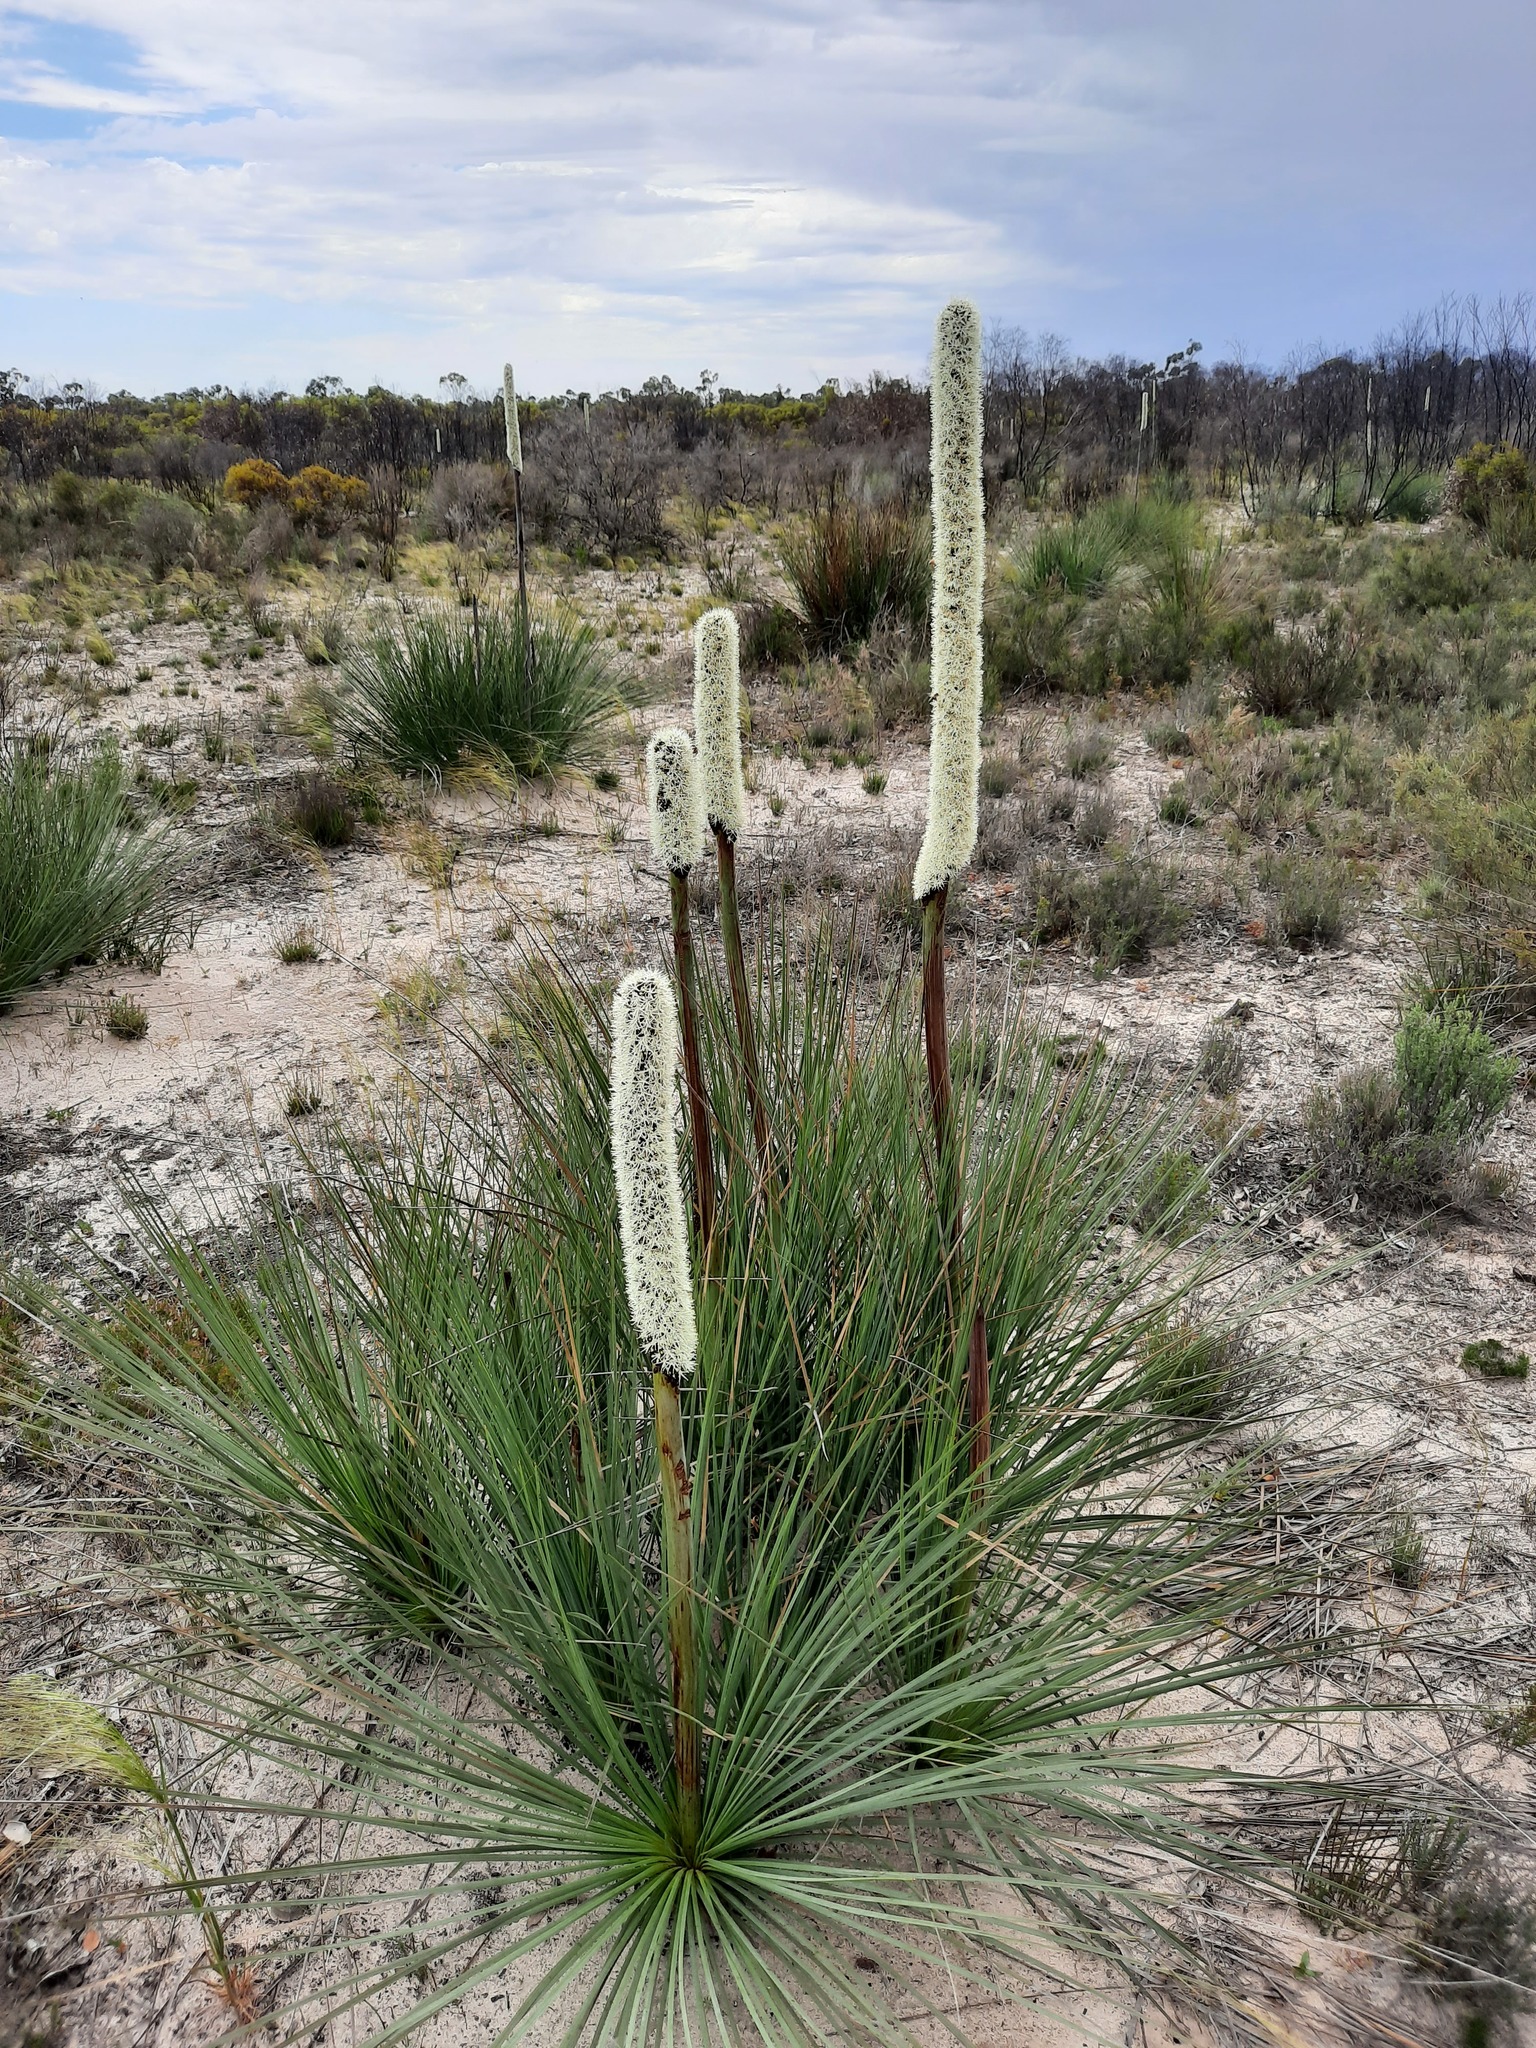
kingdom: Plantae
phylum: Tracheophyta
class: Liliopsida
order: Asparagales
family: Asphodelaceae
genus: Xanthorrhoea
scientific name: Xanthorrhoea caespitosa
